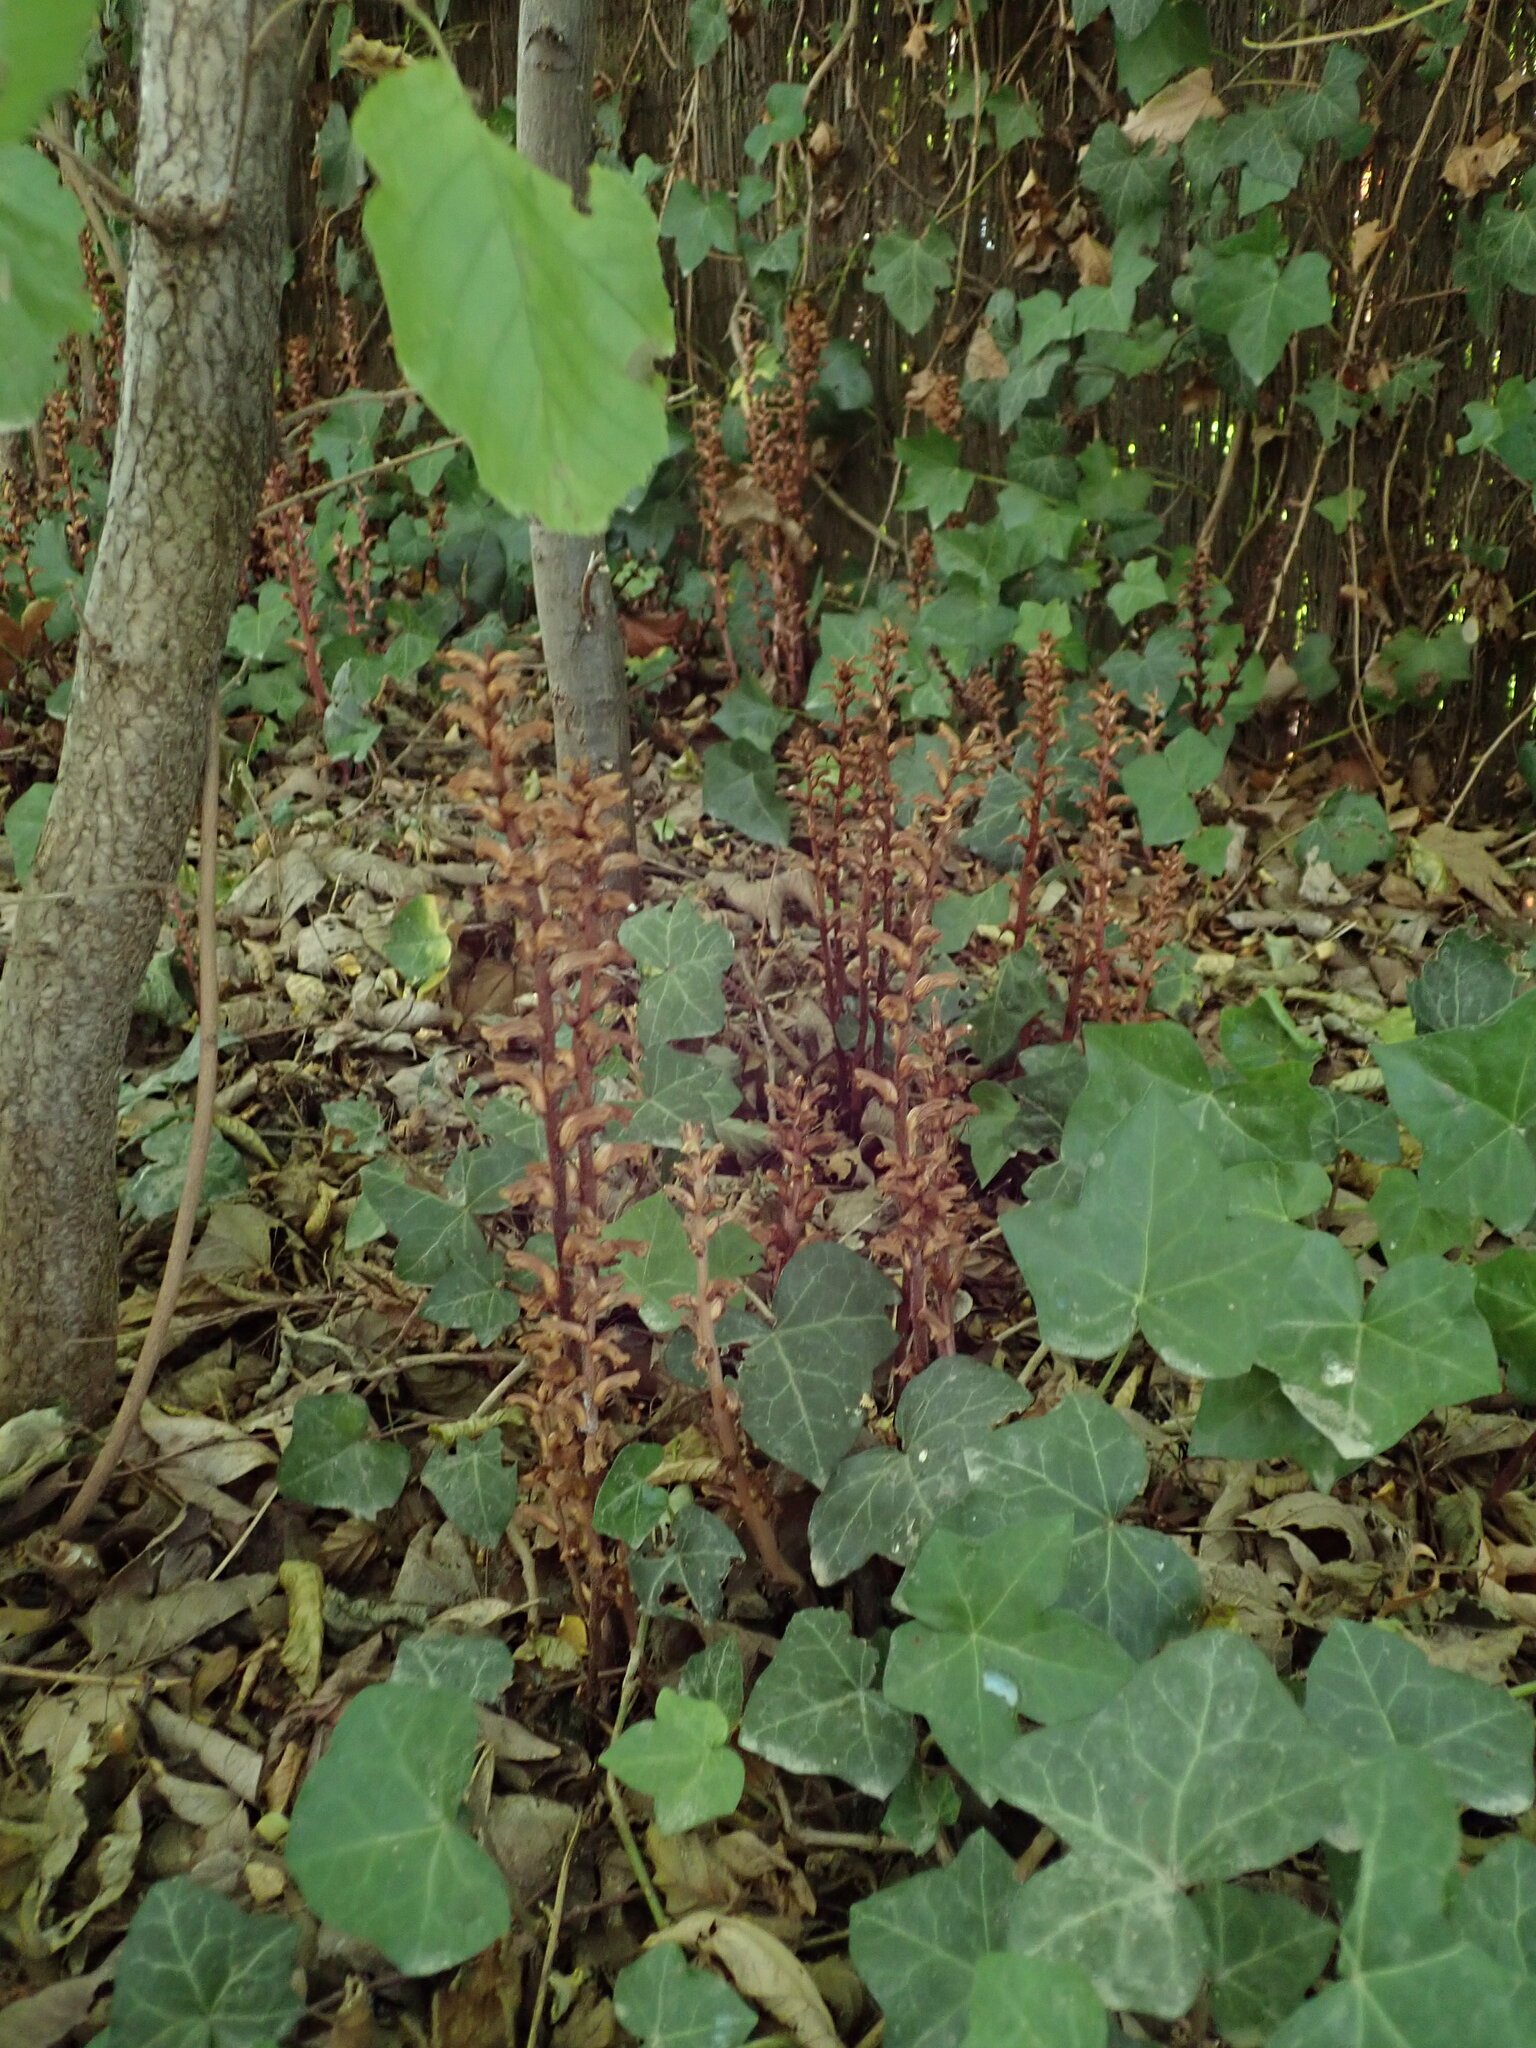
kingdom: Plantae
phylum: Tracheophyta
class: Magnoliopsida
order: Lamiales
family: Orobanchaceae
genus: Orobanche
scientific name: Orobanche hederae
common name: Ivy broomrape
